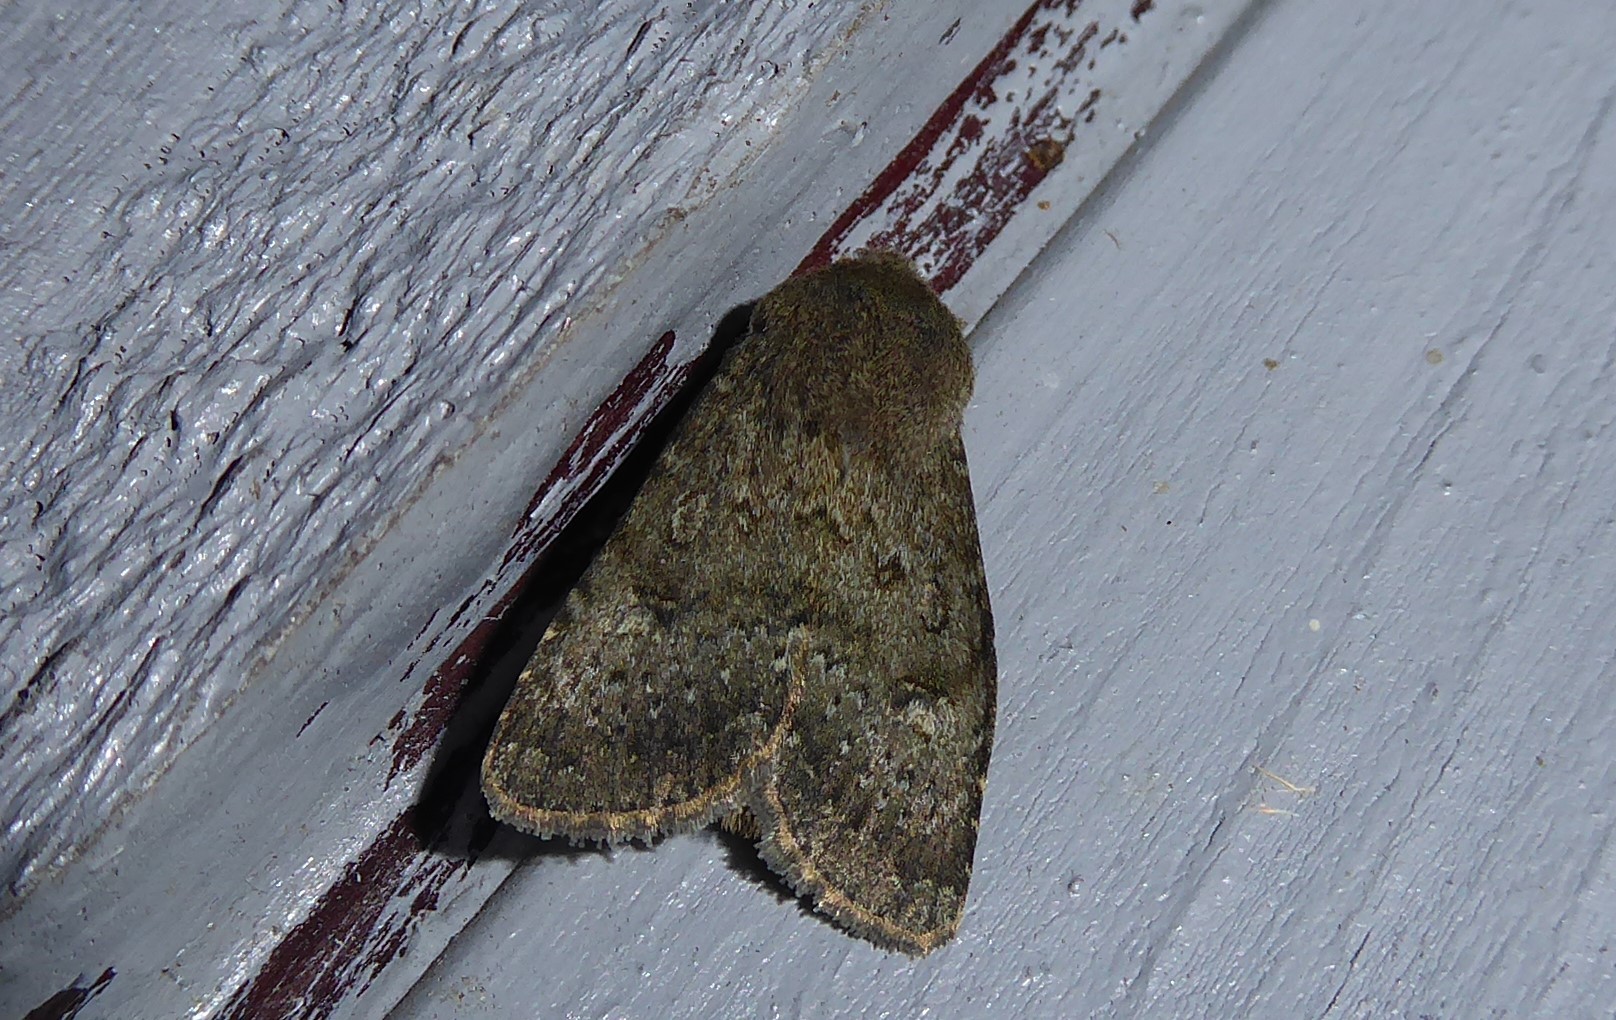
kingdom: Animalia
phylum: Arthropoda
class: Insecta
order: Lepidoptera
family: Noctuidae
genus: Ichneutica
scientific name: Ichneutica moderata
